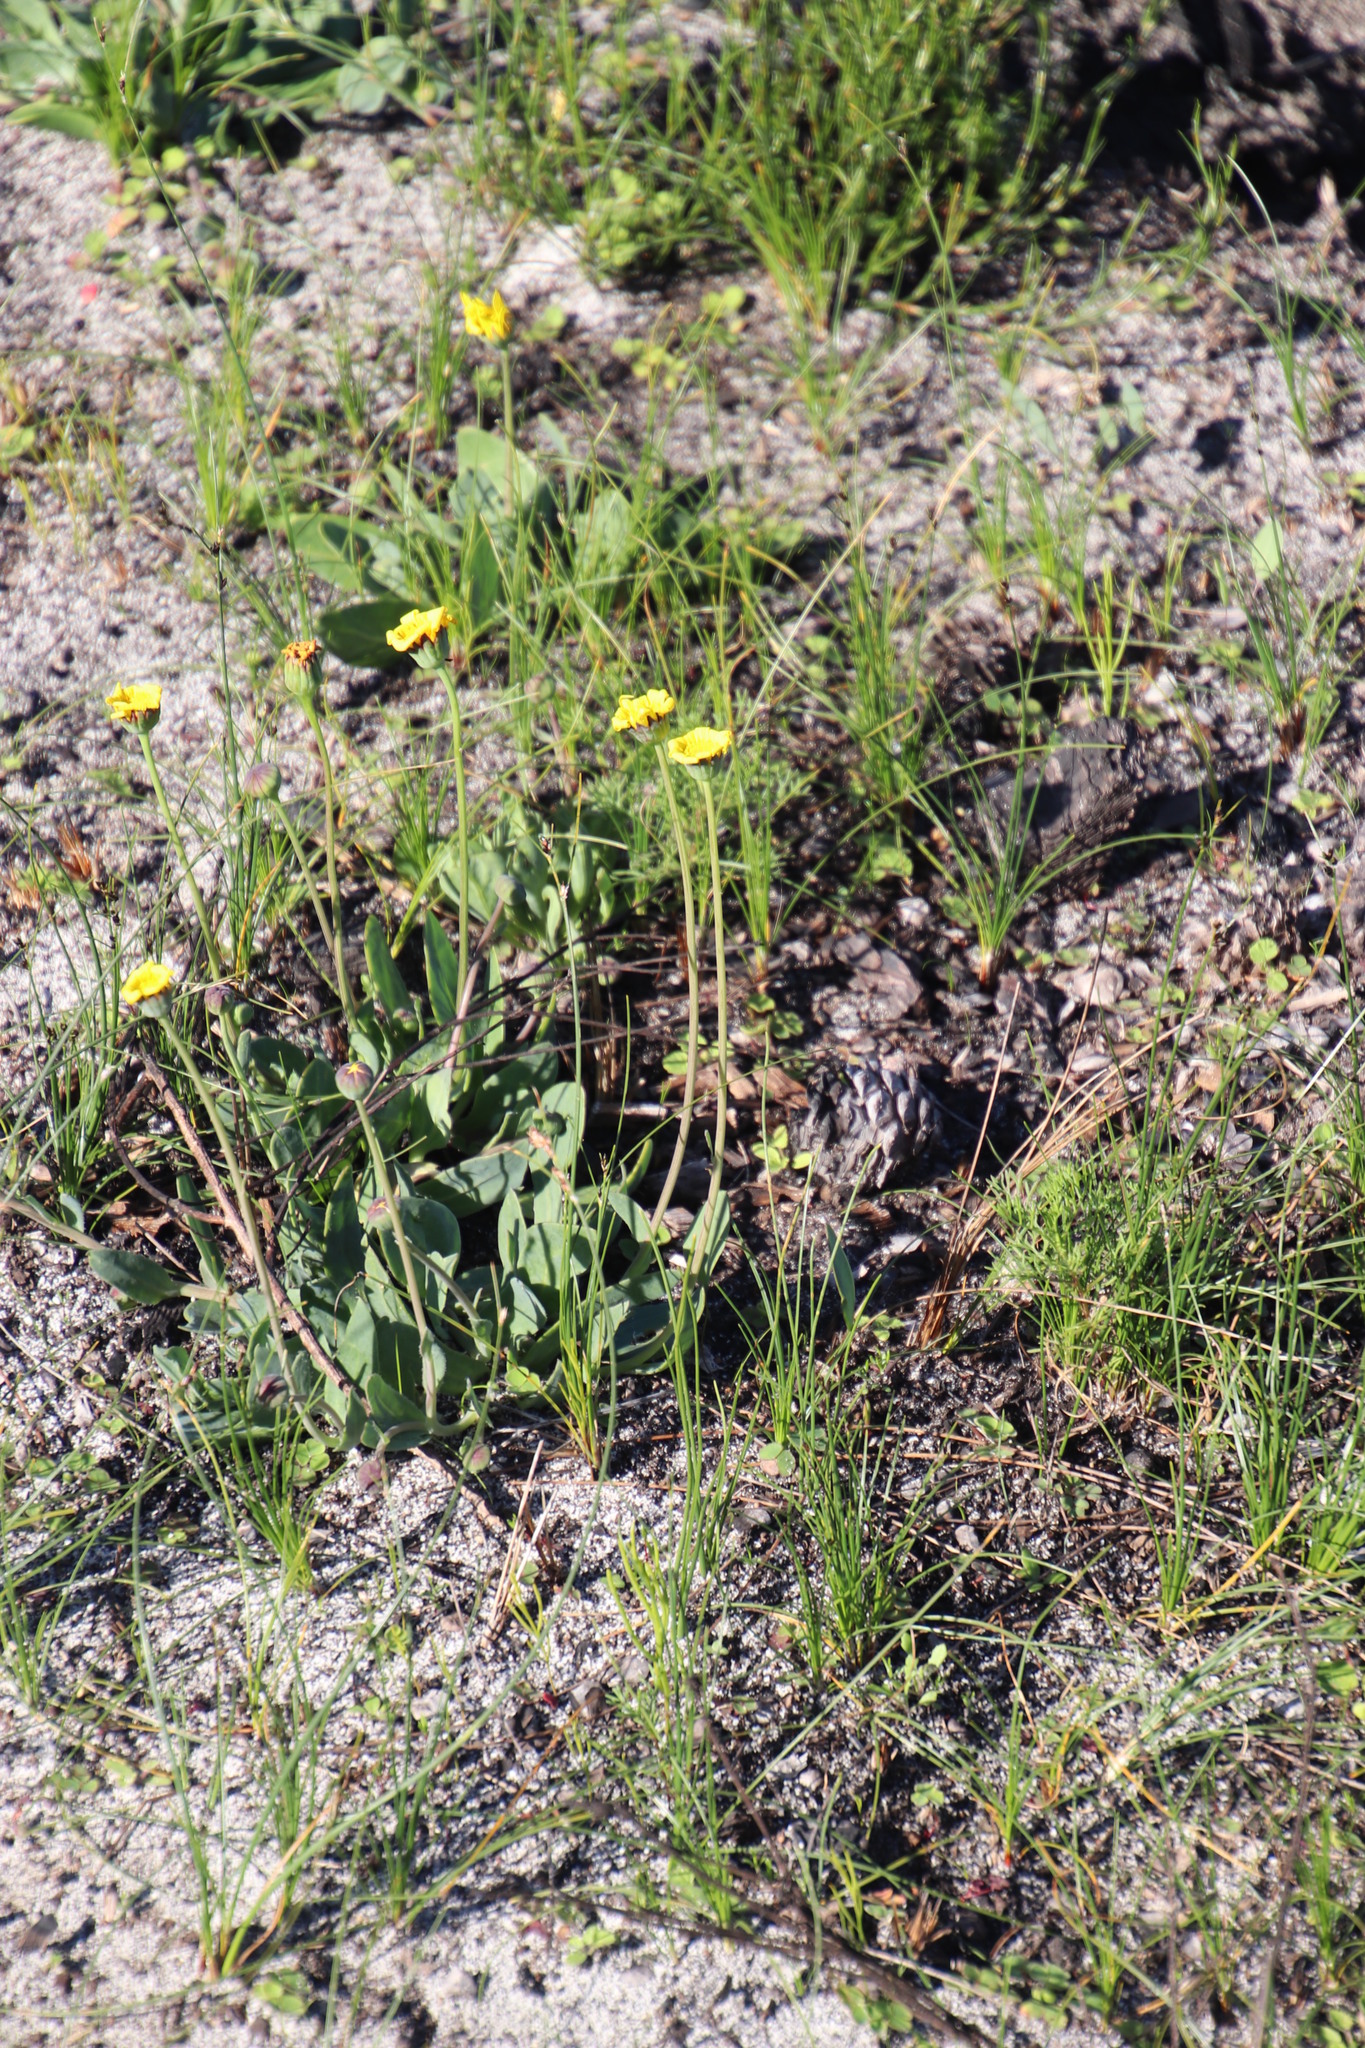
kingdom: Plantae
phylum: Tracheophyta
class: Magnoliopsida
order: Asterales
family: Asteraceae
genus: Othonna
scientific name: Othonna bulbosa
